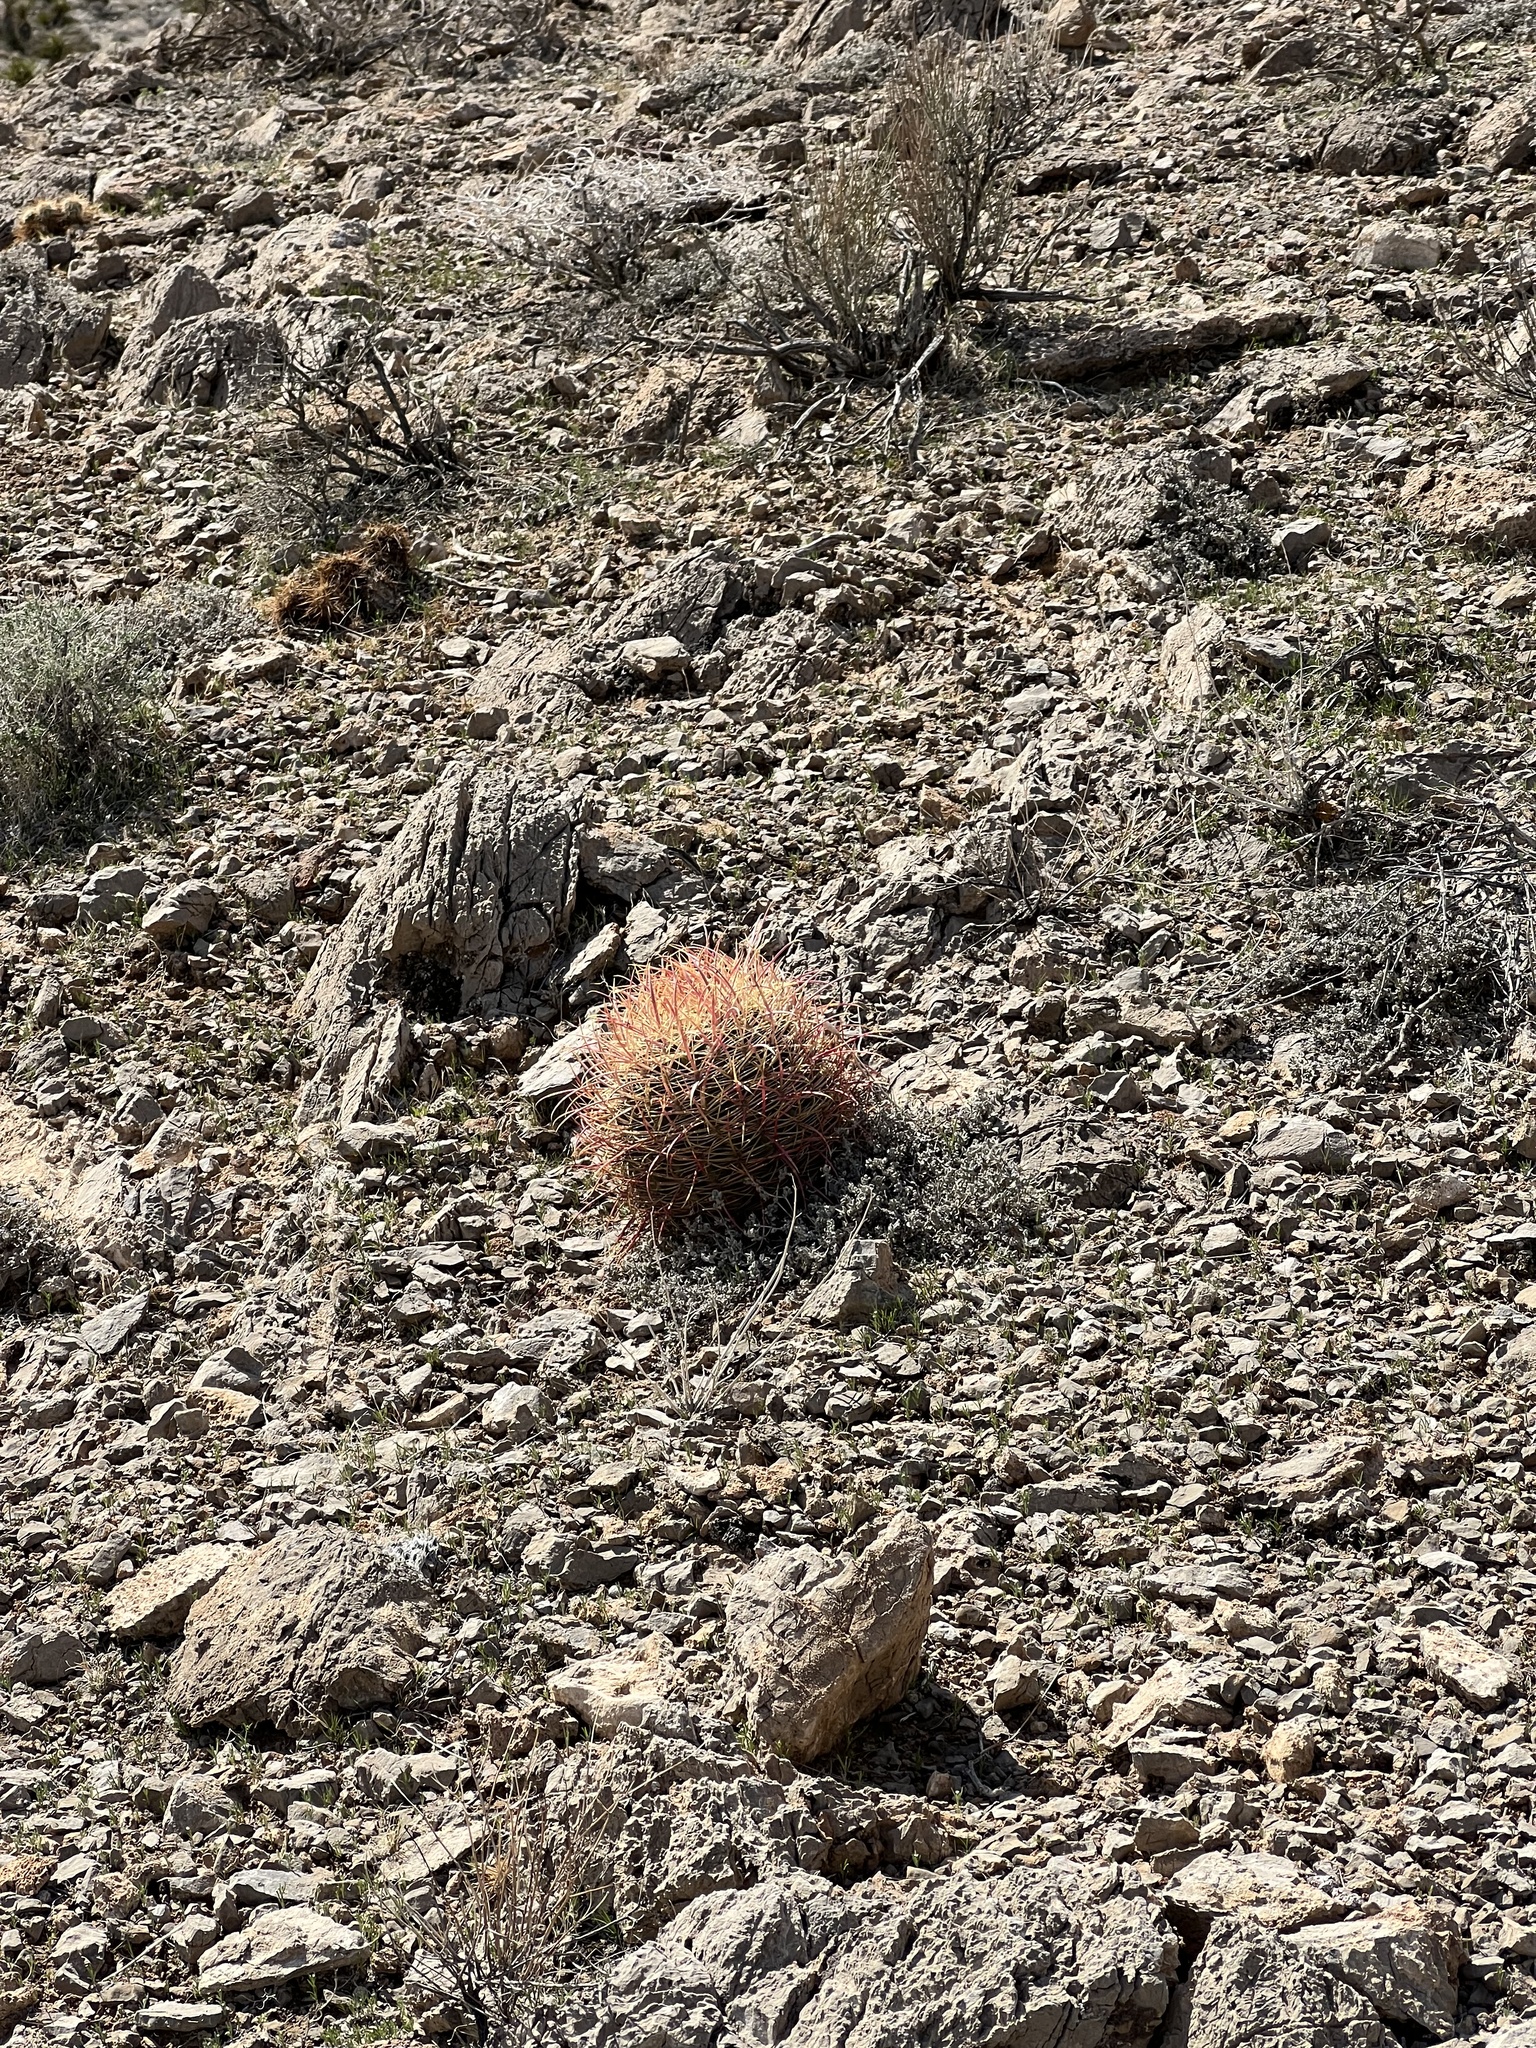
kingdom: Plantae
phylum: Tracheophyta
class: Magnoliopsida
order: Caryophyllales
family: Cactaceae
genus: Ferocactus
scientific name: Ferocactus cylindraceus
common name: California barrel cactus
